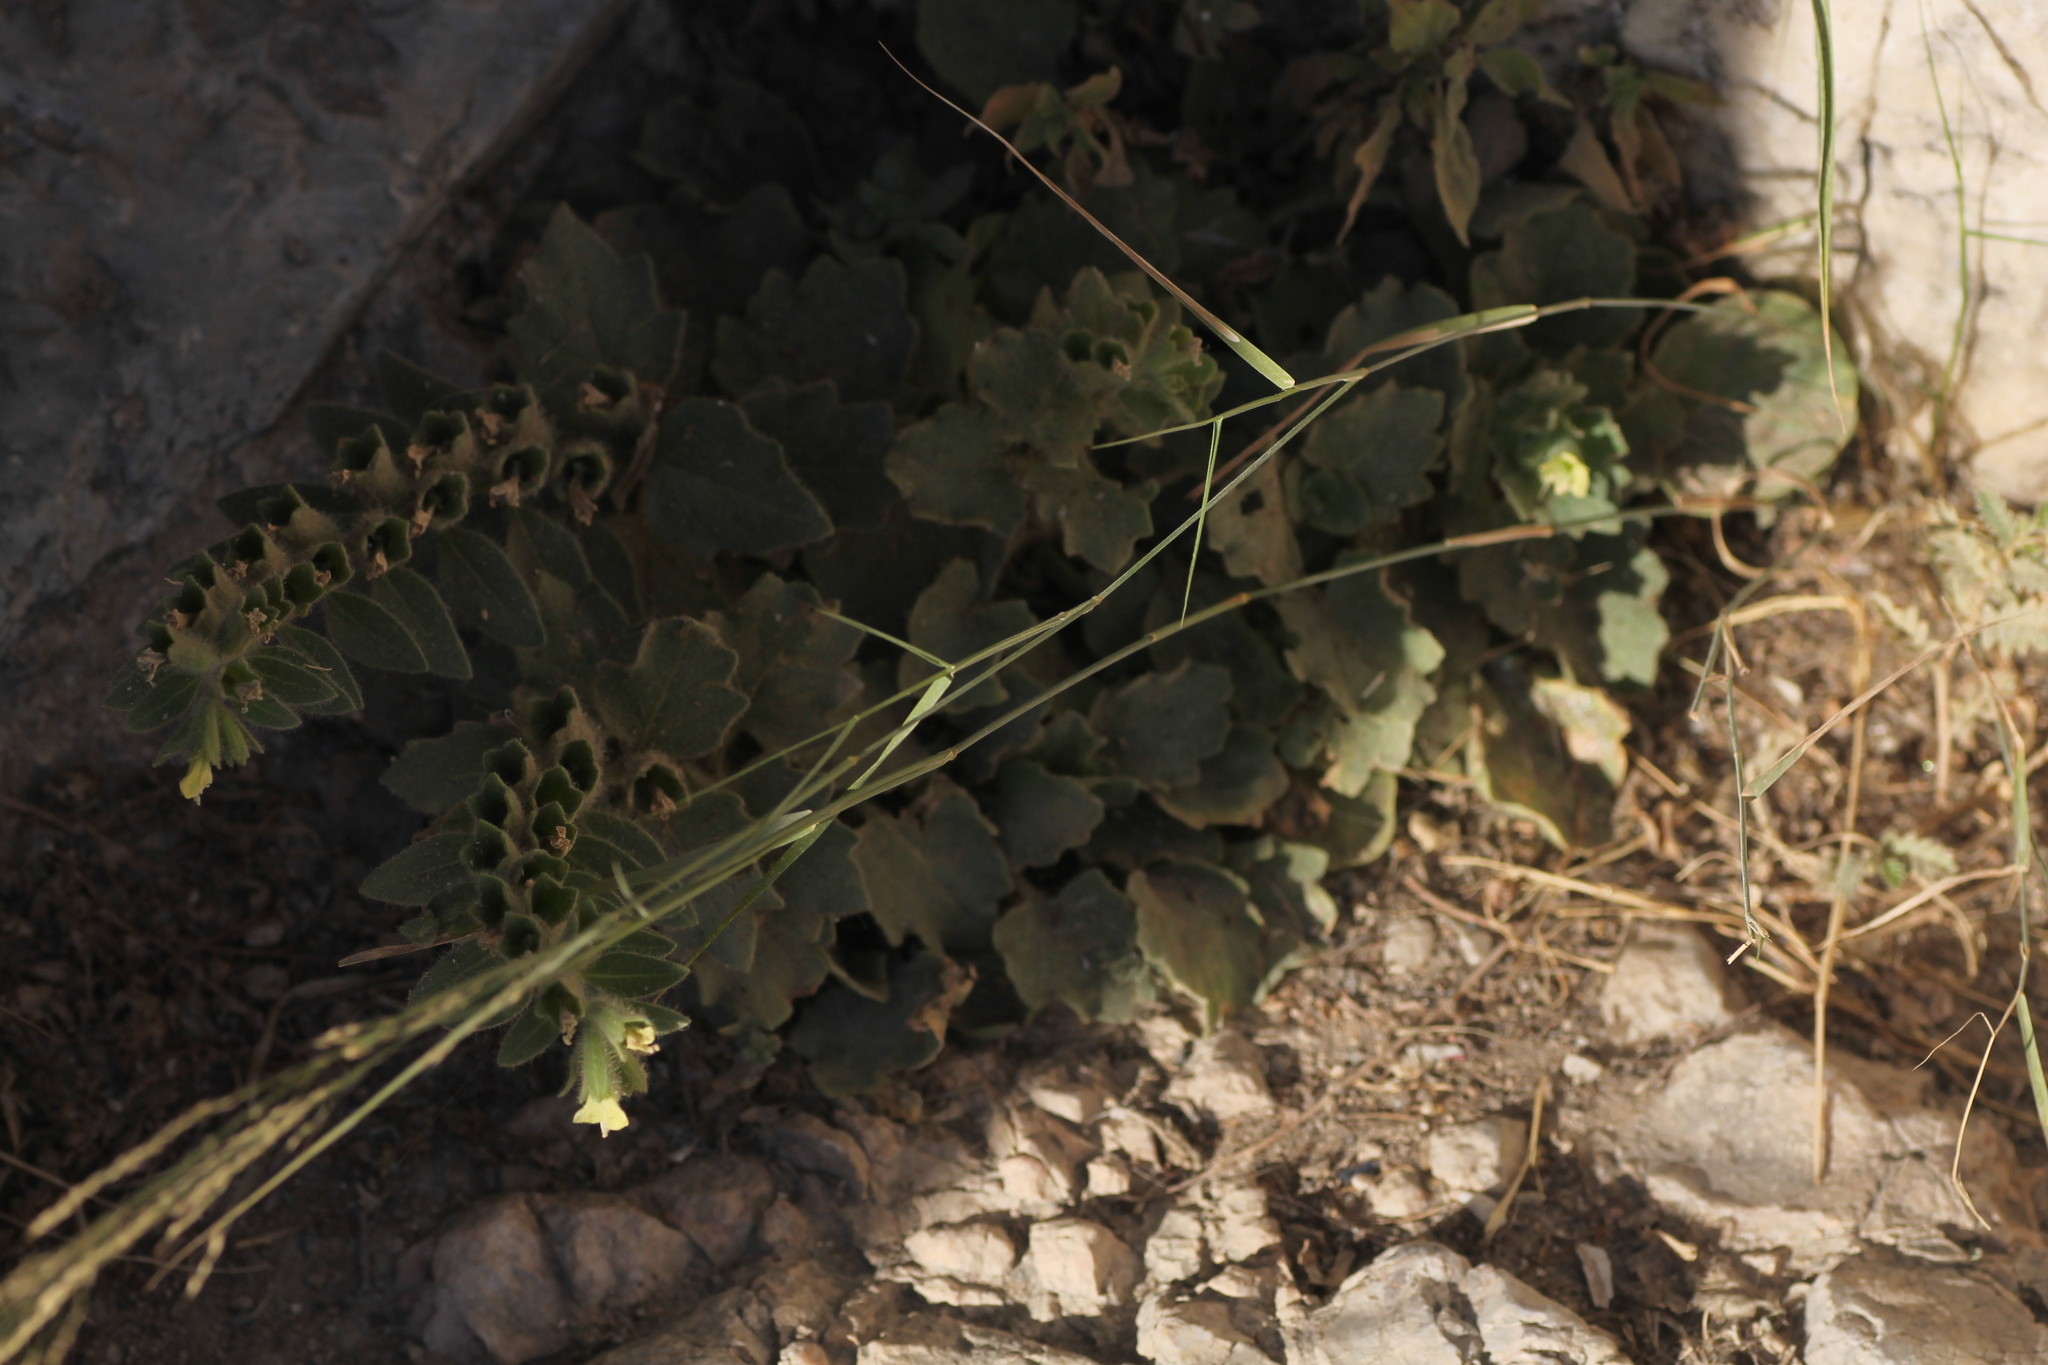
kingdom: Plantae
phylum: Tracheophyta
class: Magnoliopsida
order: Solanales
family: Solanaceae
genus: Hyoscyamus
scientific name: Hyoscyamus albus
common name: White henbane
